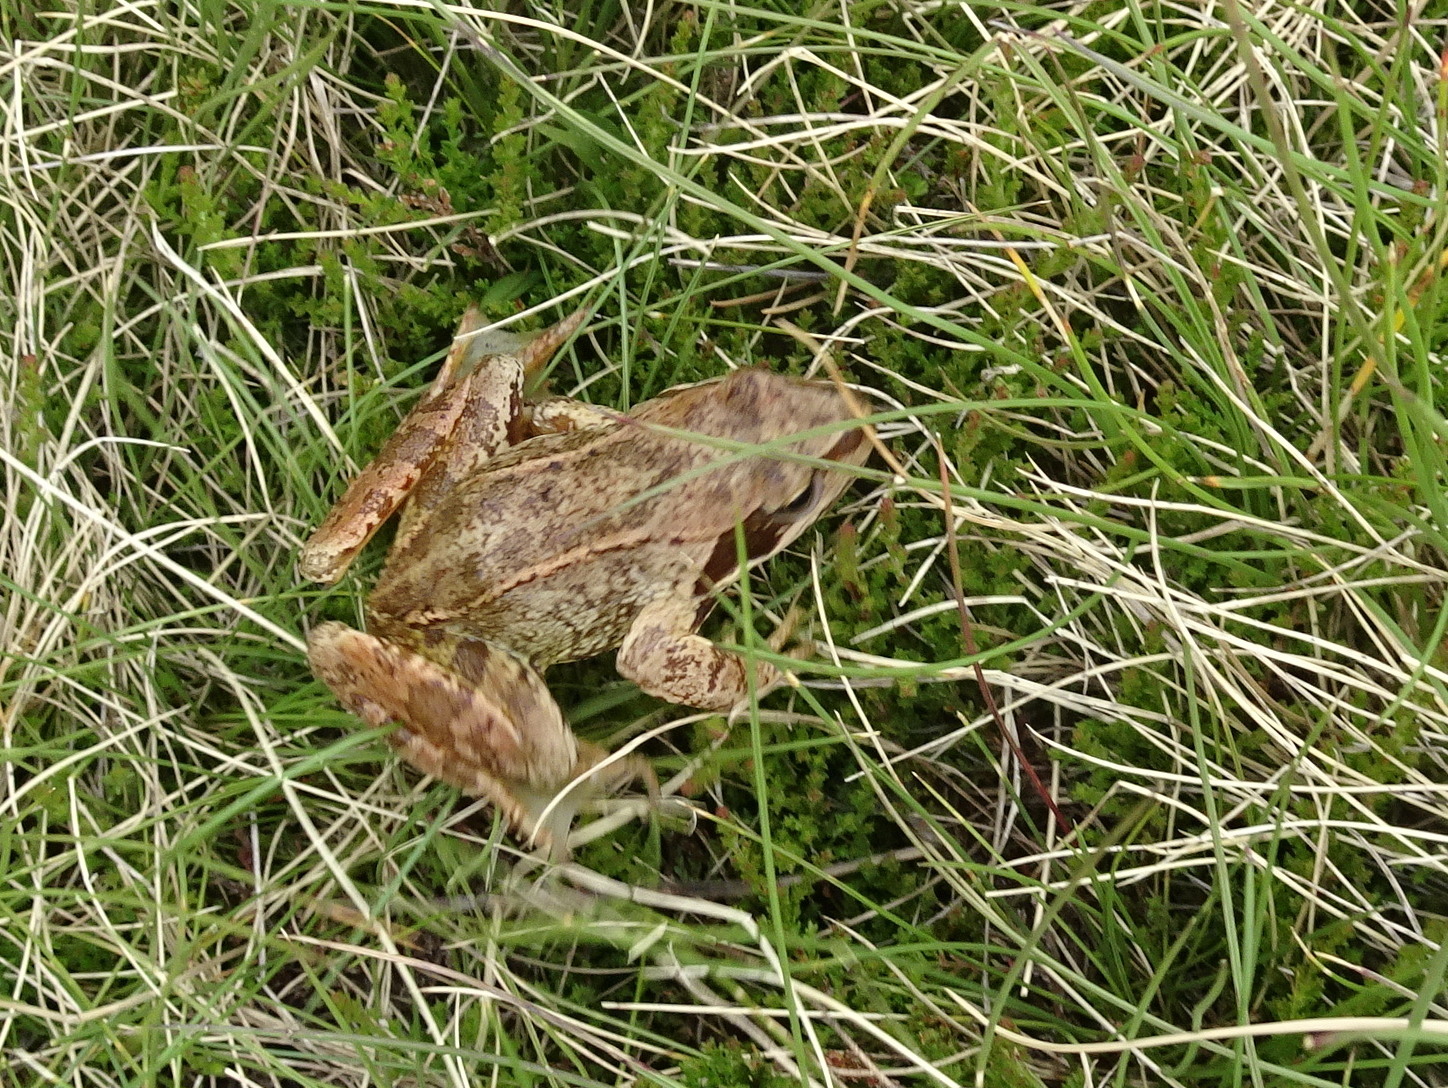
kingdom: Animalia
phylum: Chordata
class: Amphibia
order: Anura
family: Ranidae
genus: Rana
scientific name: Rana temporaria
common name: Common frog
